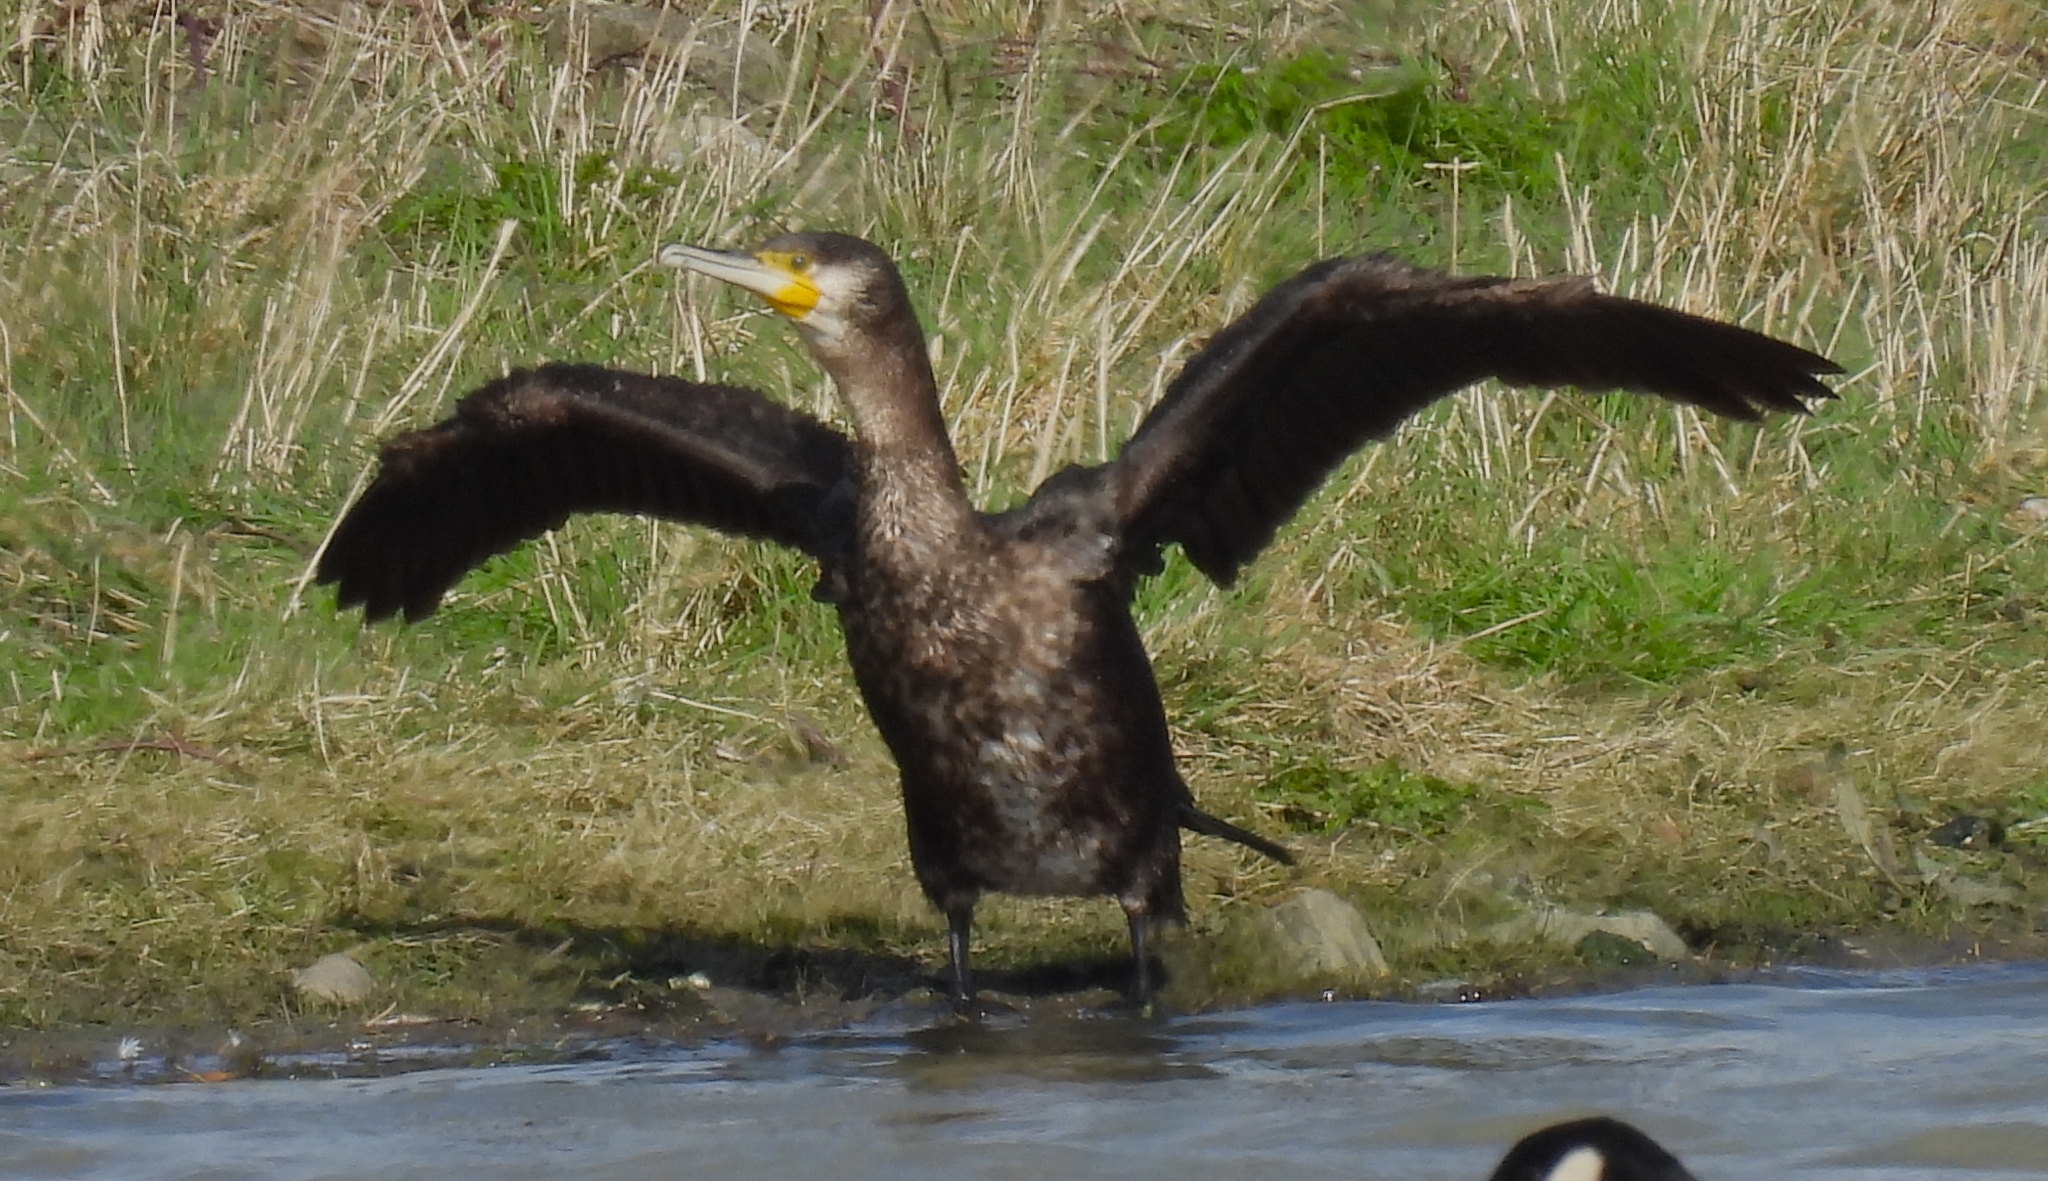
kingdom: Animalia
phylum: Chordata
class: Aves
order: Suliformes
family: Phalacrocoracidae
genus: Phalacrocorax
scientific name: Phalacrocorax carbo
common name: Great cormorant
